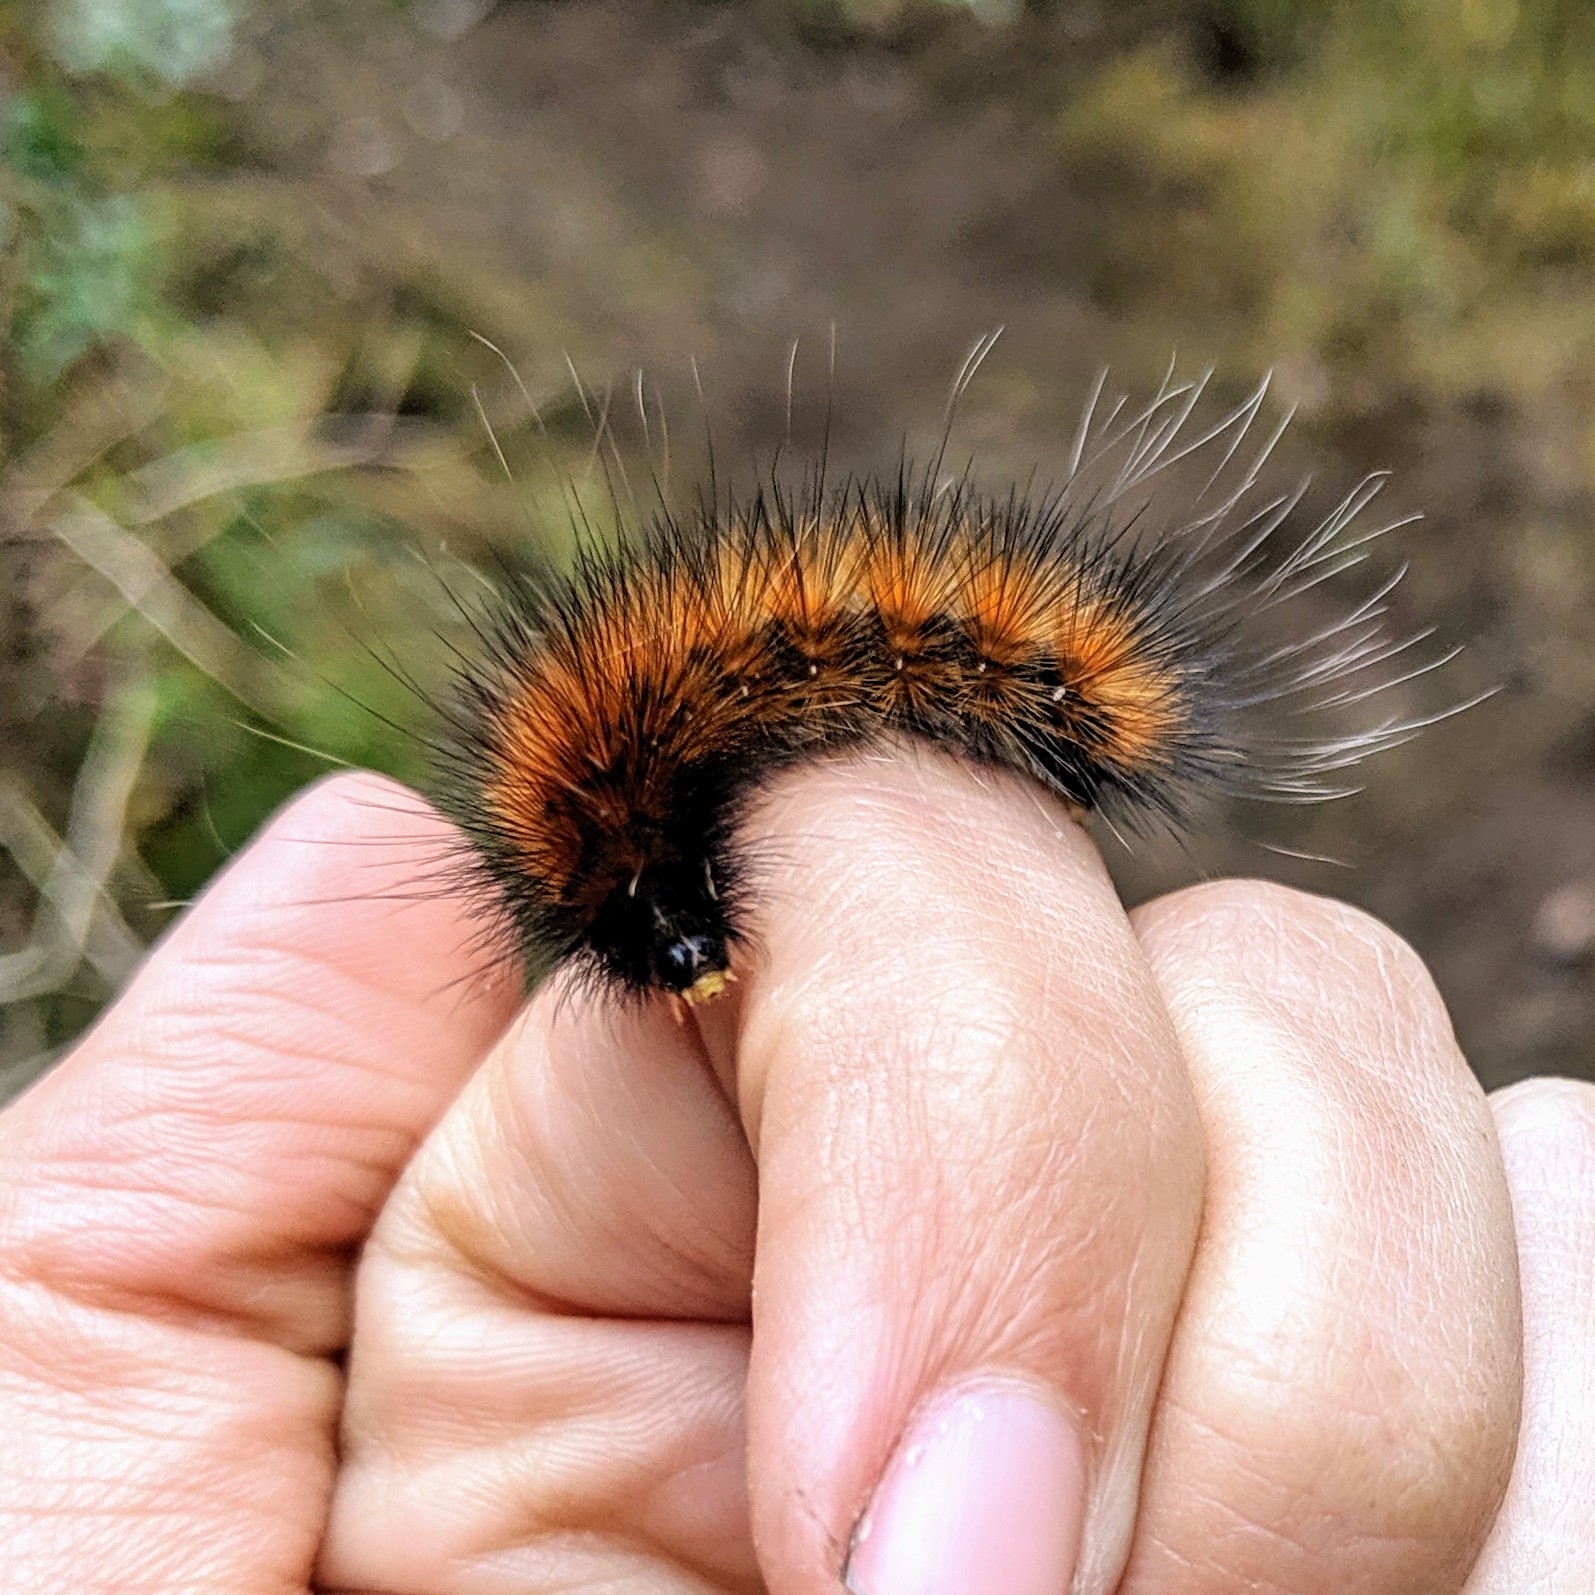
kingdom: Animalia
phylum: Arthropoda
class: Insecta
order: Lepidoptera
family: Erebidae
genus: Spilosoma
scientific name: Spilosoma virginica
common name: Virginia tiger moth
